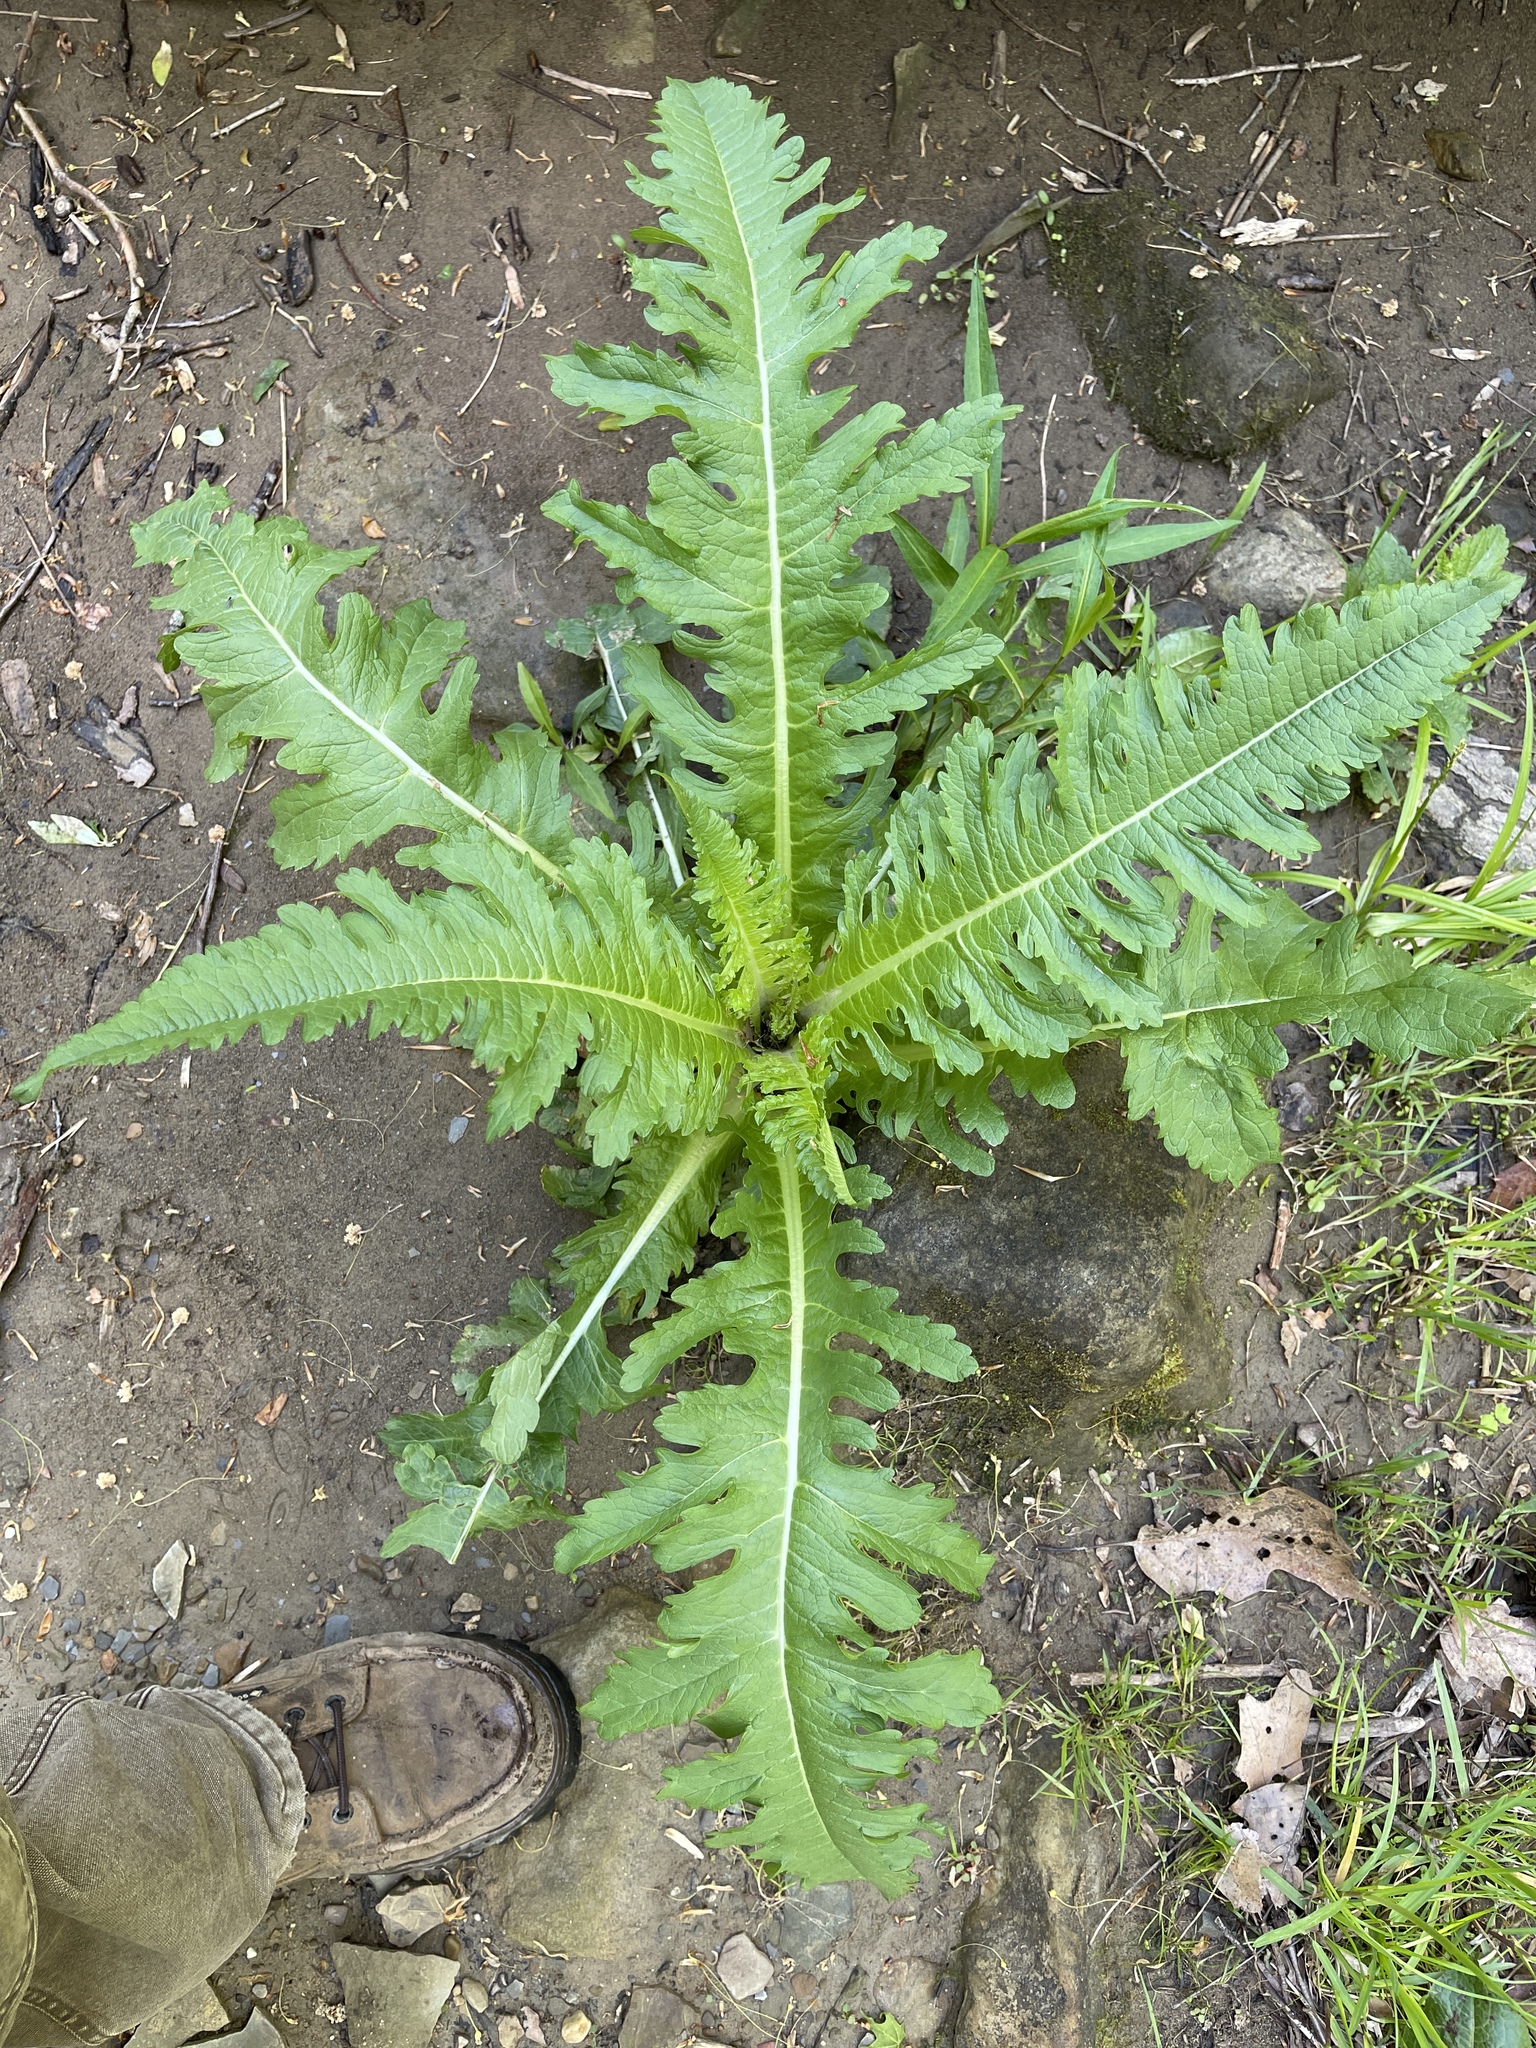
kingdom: Plantae
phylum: Tracheophyta
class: Magnoliopsida
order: Dipsacales
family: Caprifoliaceae
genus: Dipsacus
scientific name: Dipsacus laciniatus
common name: Cut-leaved teasel
